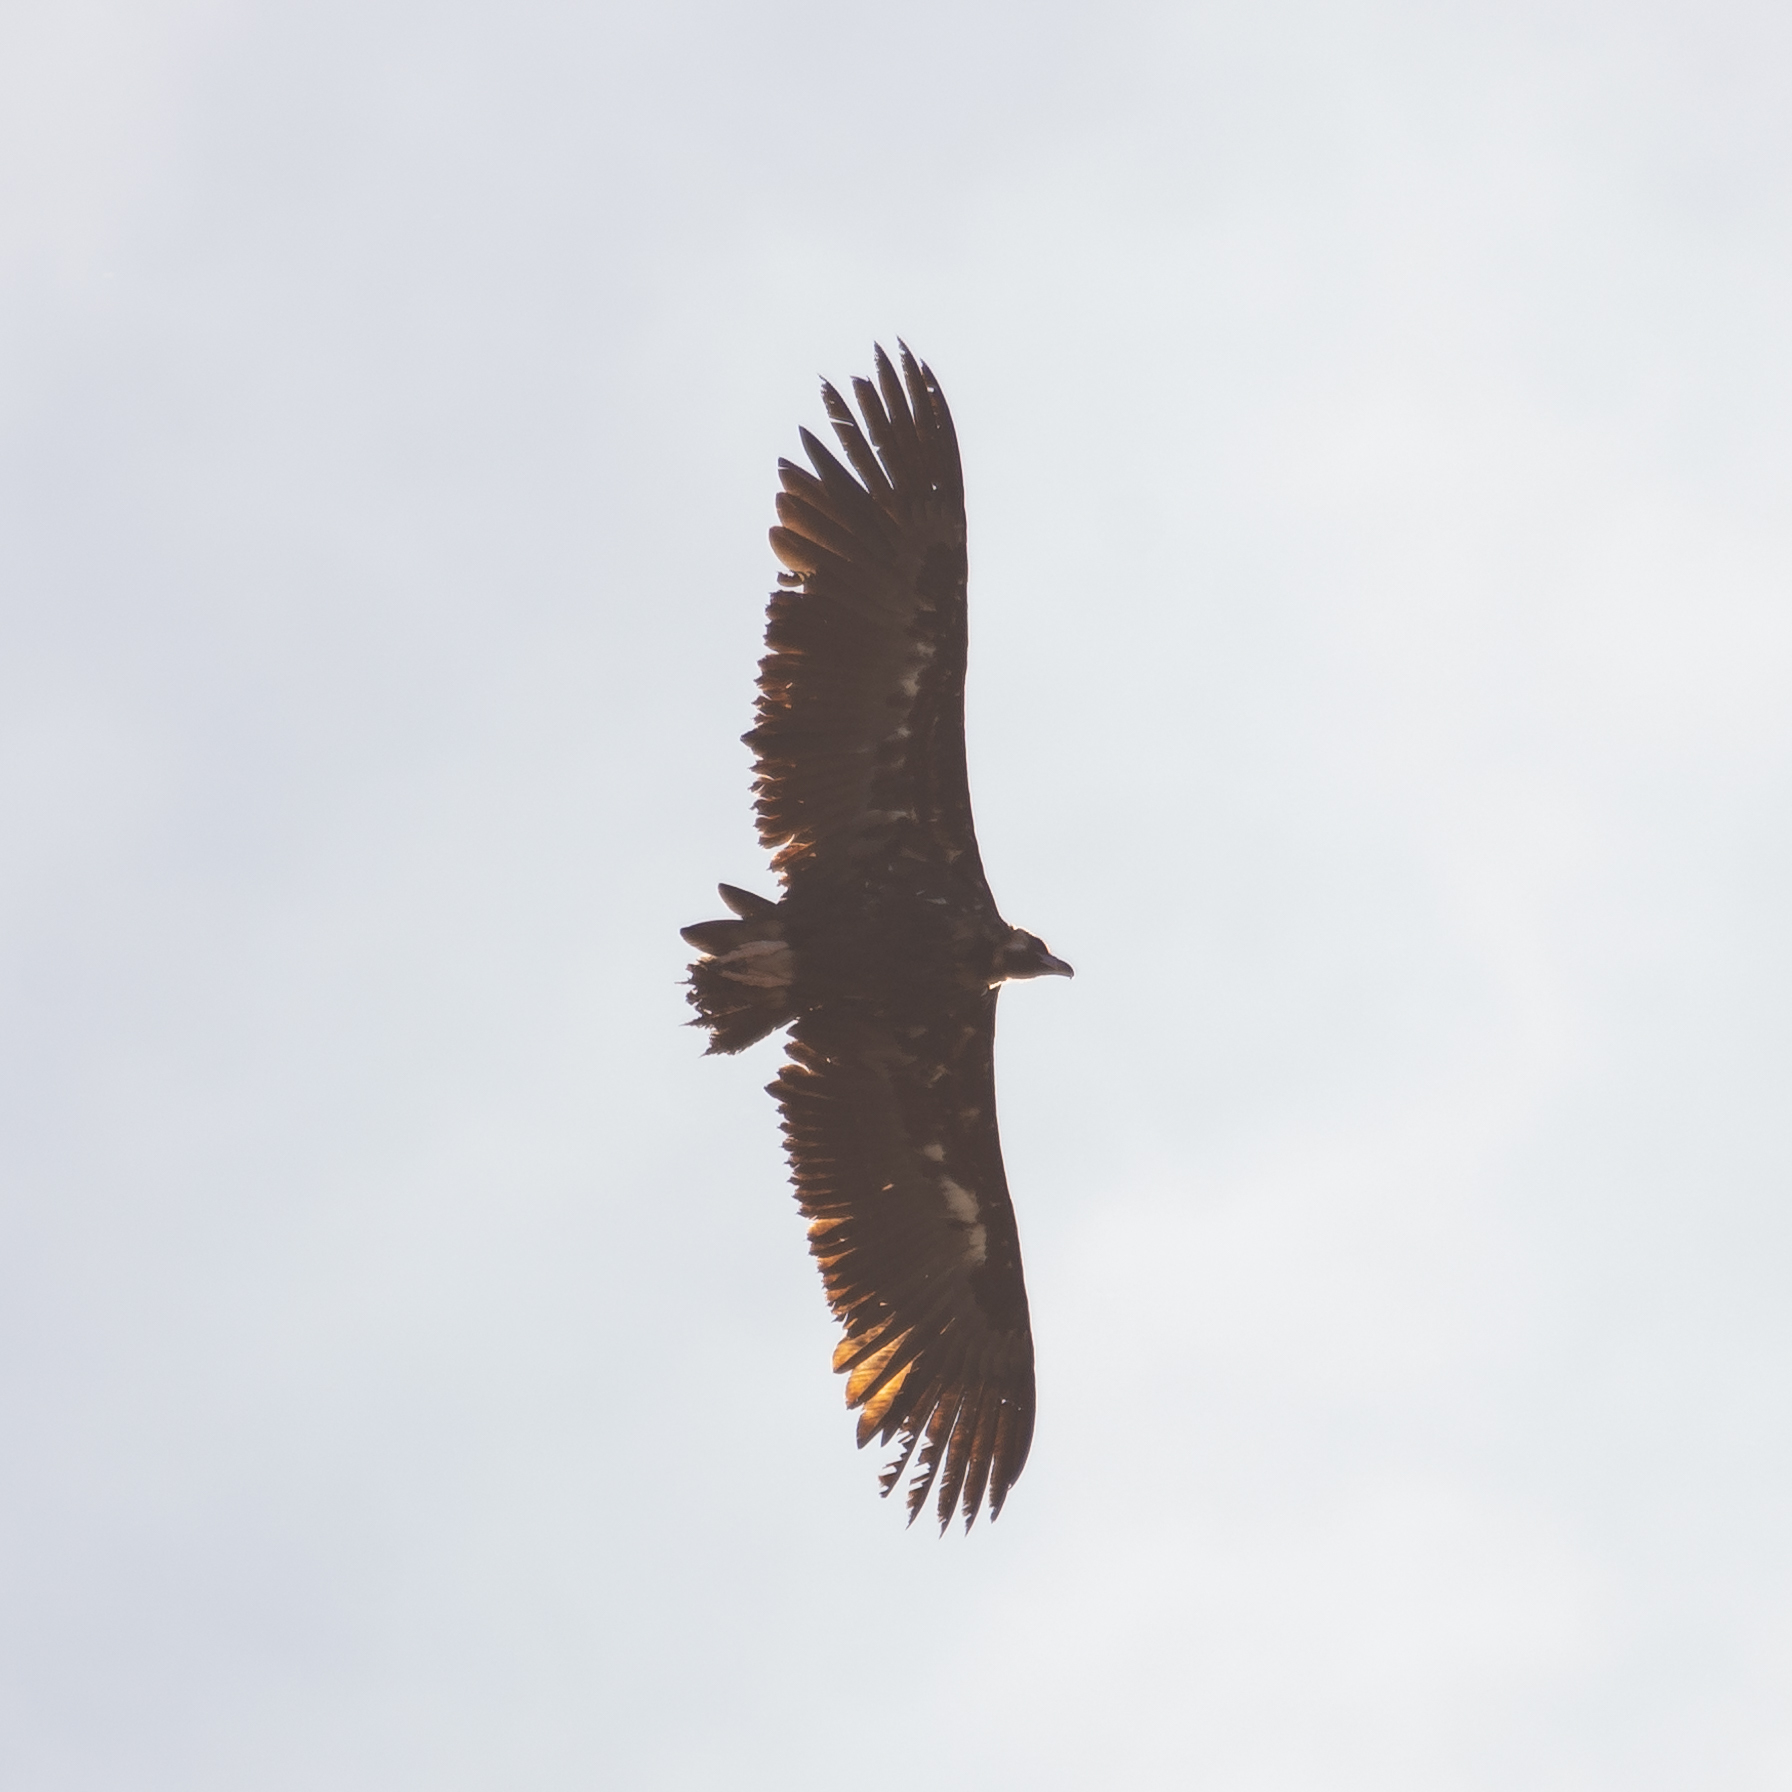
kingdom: Animalia
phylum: Chordata
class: Aves
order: Accipitriformes
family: Accipitridae
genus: Aegypius
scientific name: Aegypius monachus
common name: Cinereous vulture
